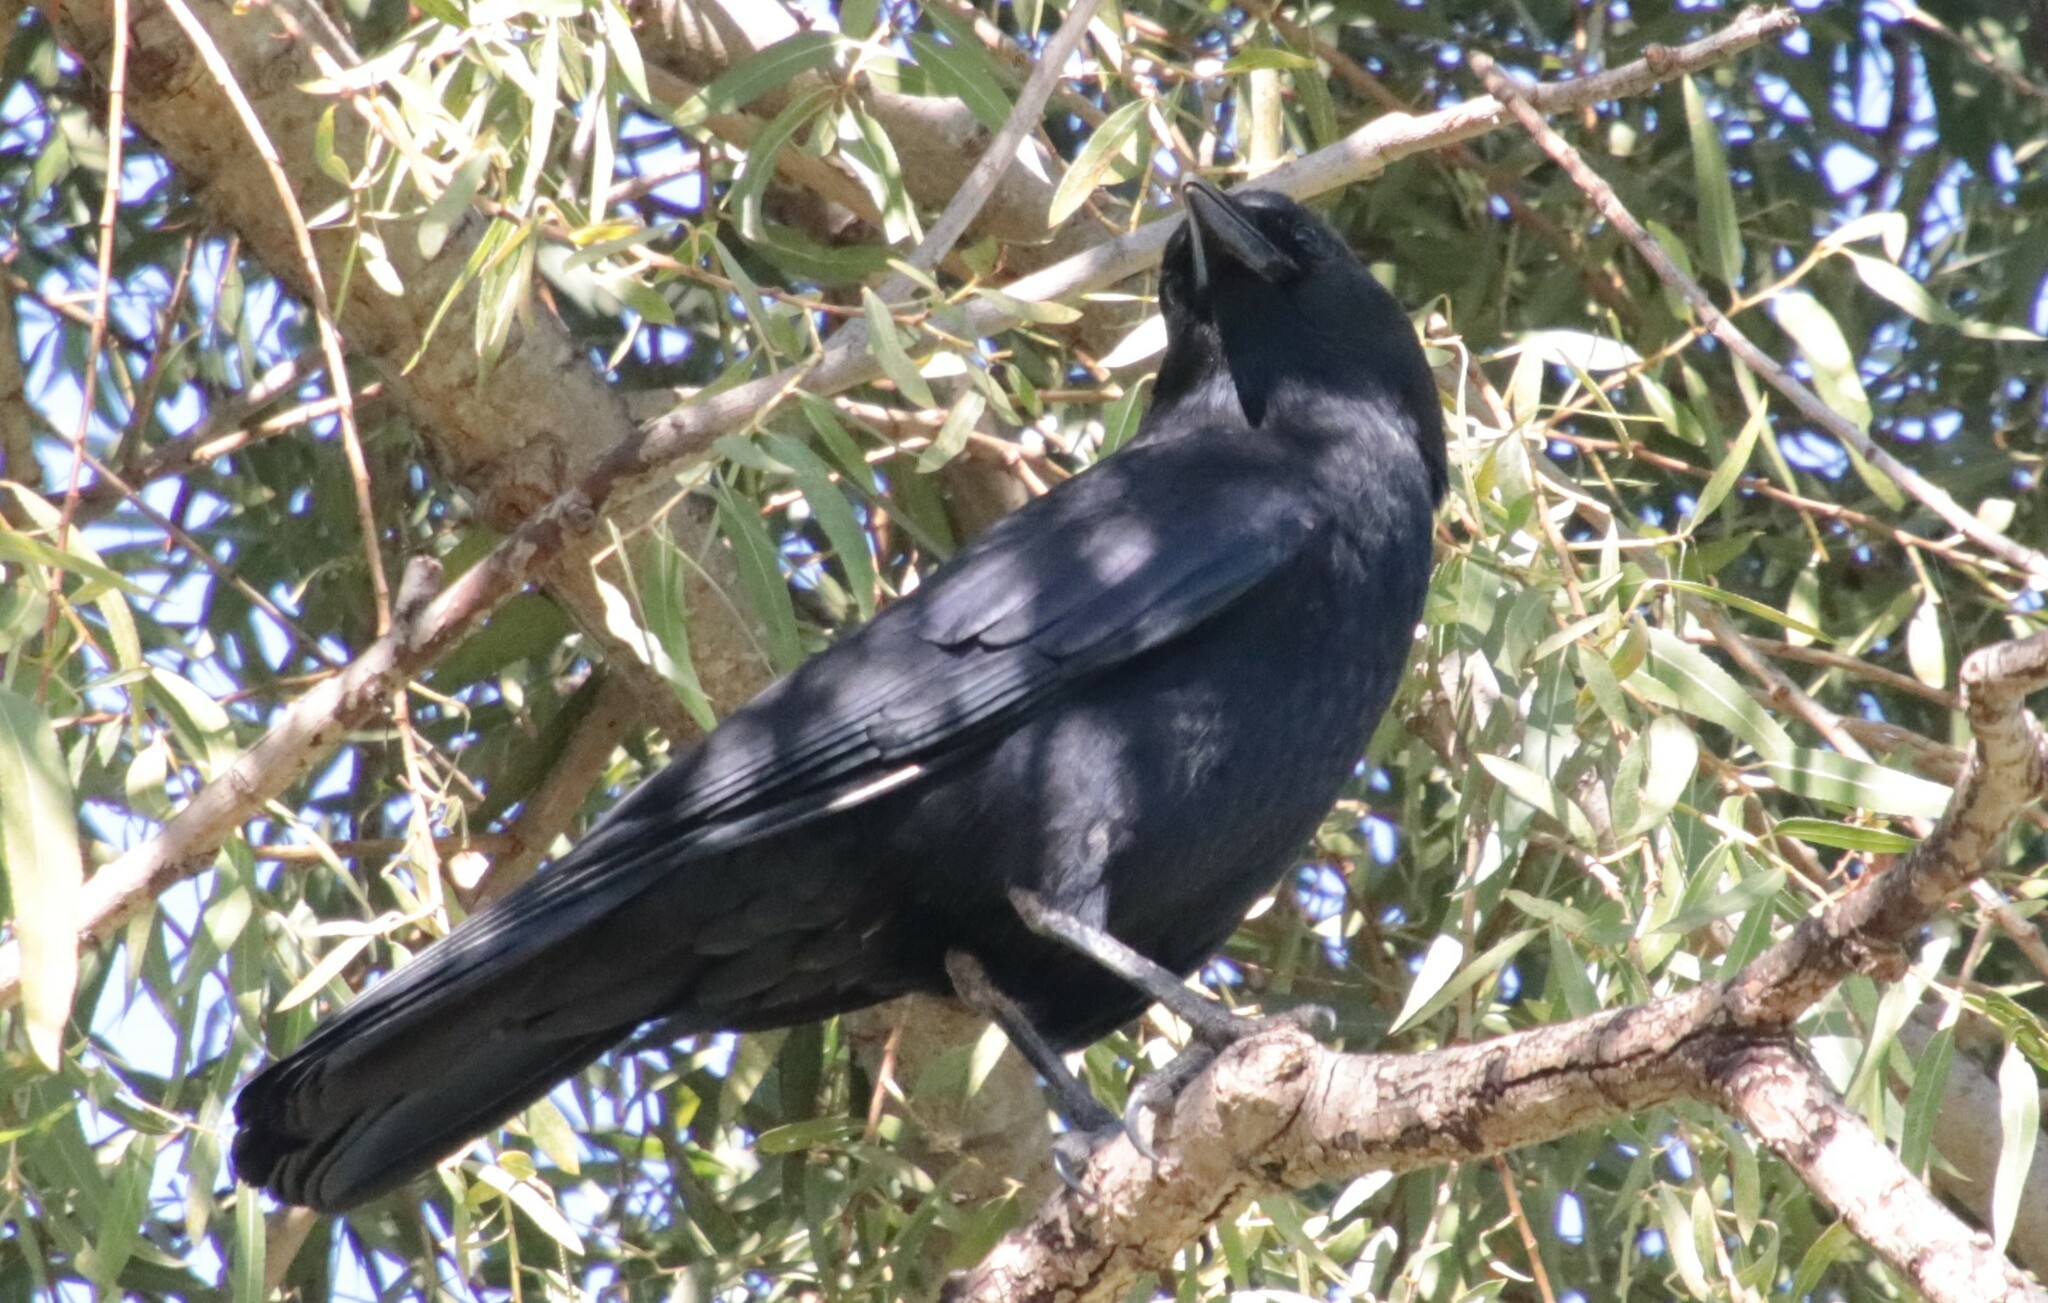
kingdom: Animalia
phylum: Chordata
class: Aves
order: Passeriformes
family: Corvidae
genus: Corvus
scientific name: Corvus brachyrhynchos
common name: American crow
